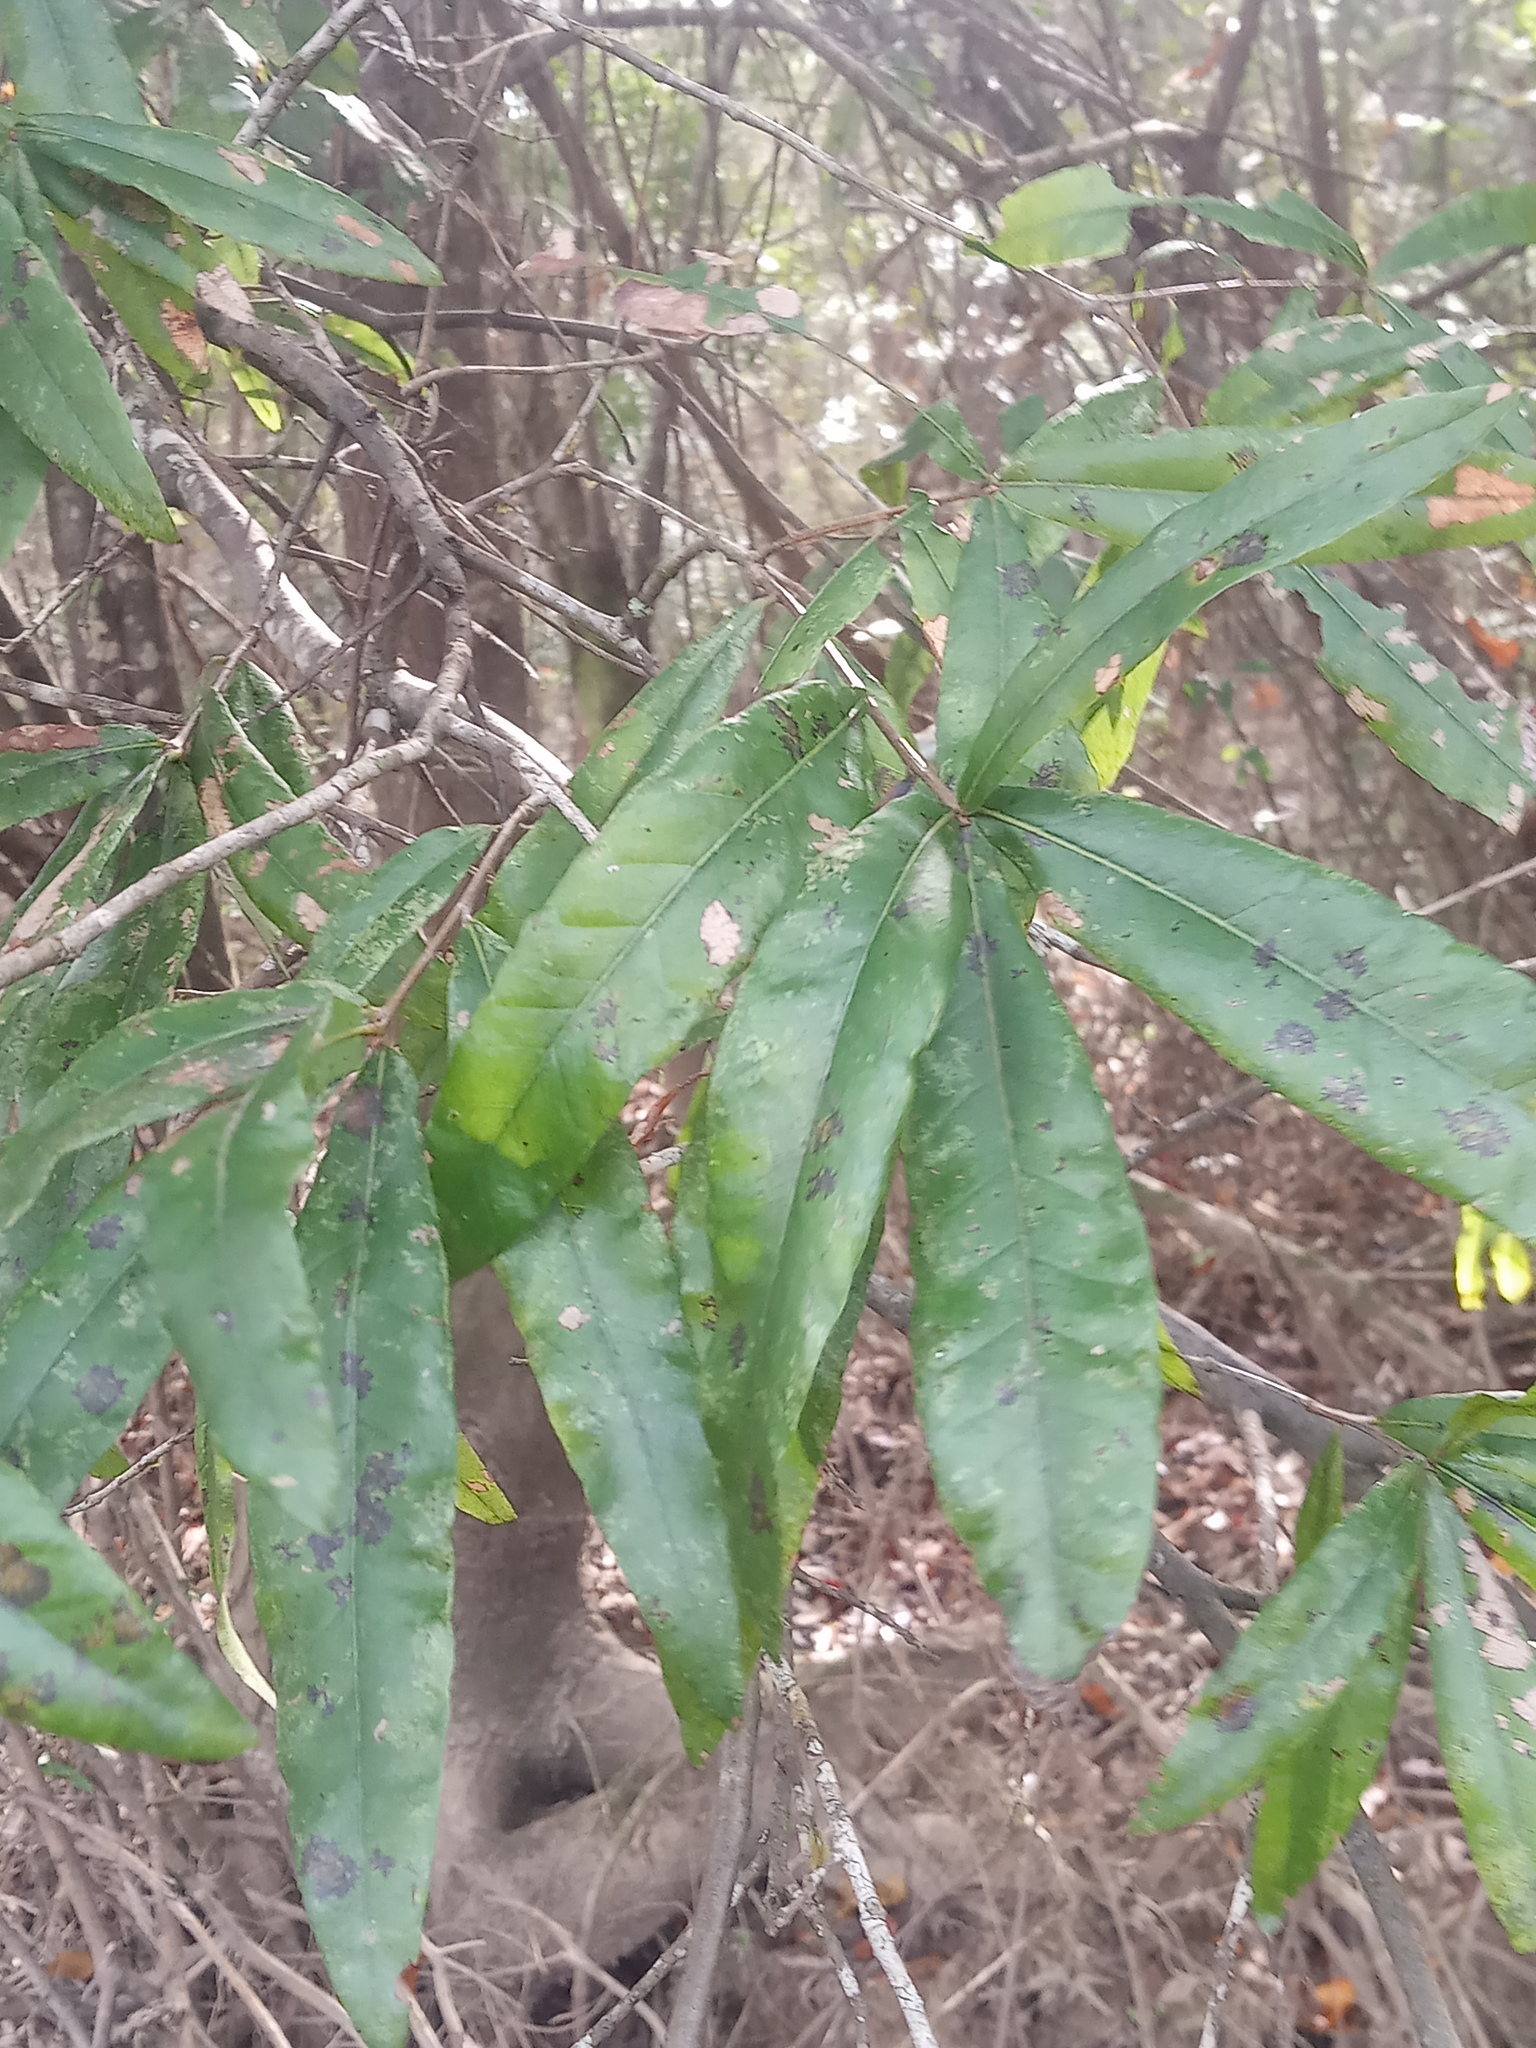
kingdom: Plantae
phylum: Tracheophyta
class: Magnoliopsida
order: Fagales
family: Fagaceae
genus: Quercus
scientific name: Quercus phellos
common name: Willow oak
